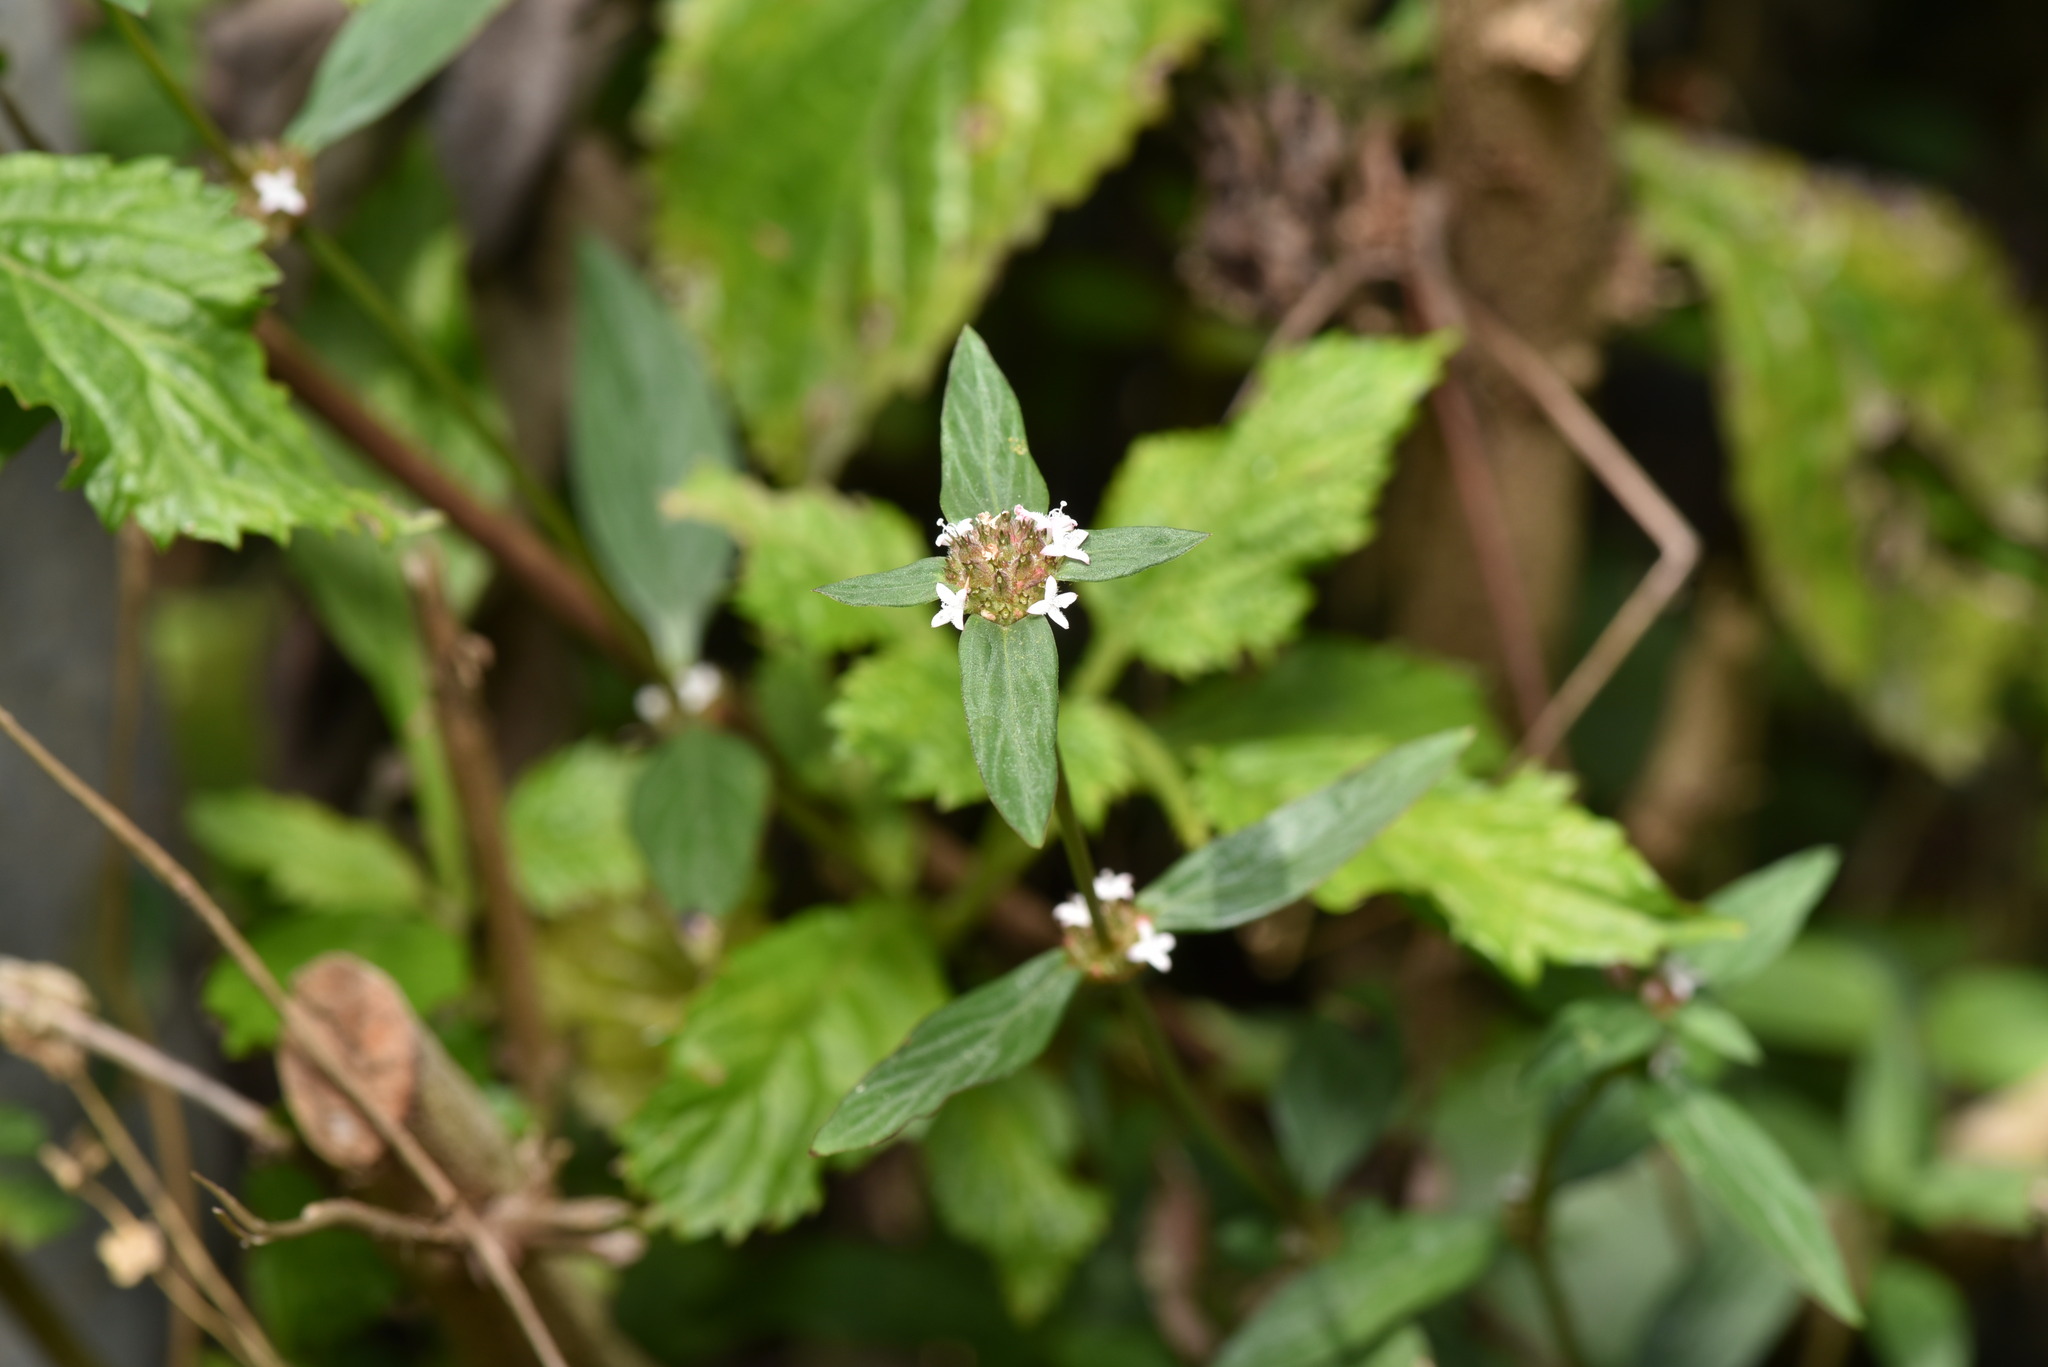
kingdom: Plantae
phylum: Tracheophyta
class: Magnoliopsida
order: Gentianales
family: Rubiaceae
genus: Spermacoce
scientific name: Spermacoce remota
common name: Woodland false buttonweed
